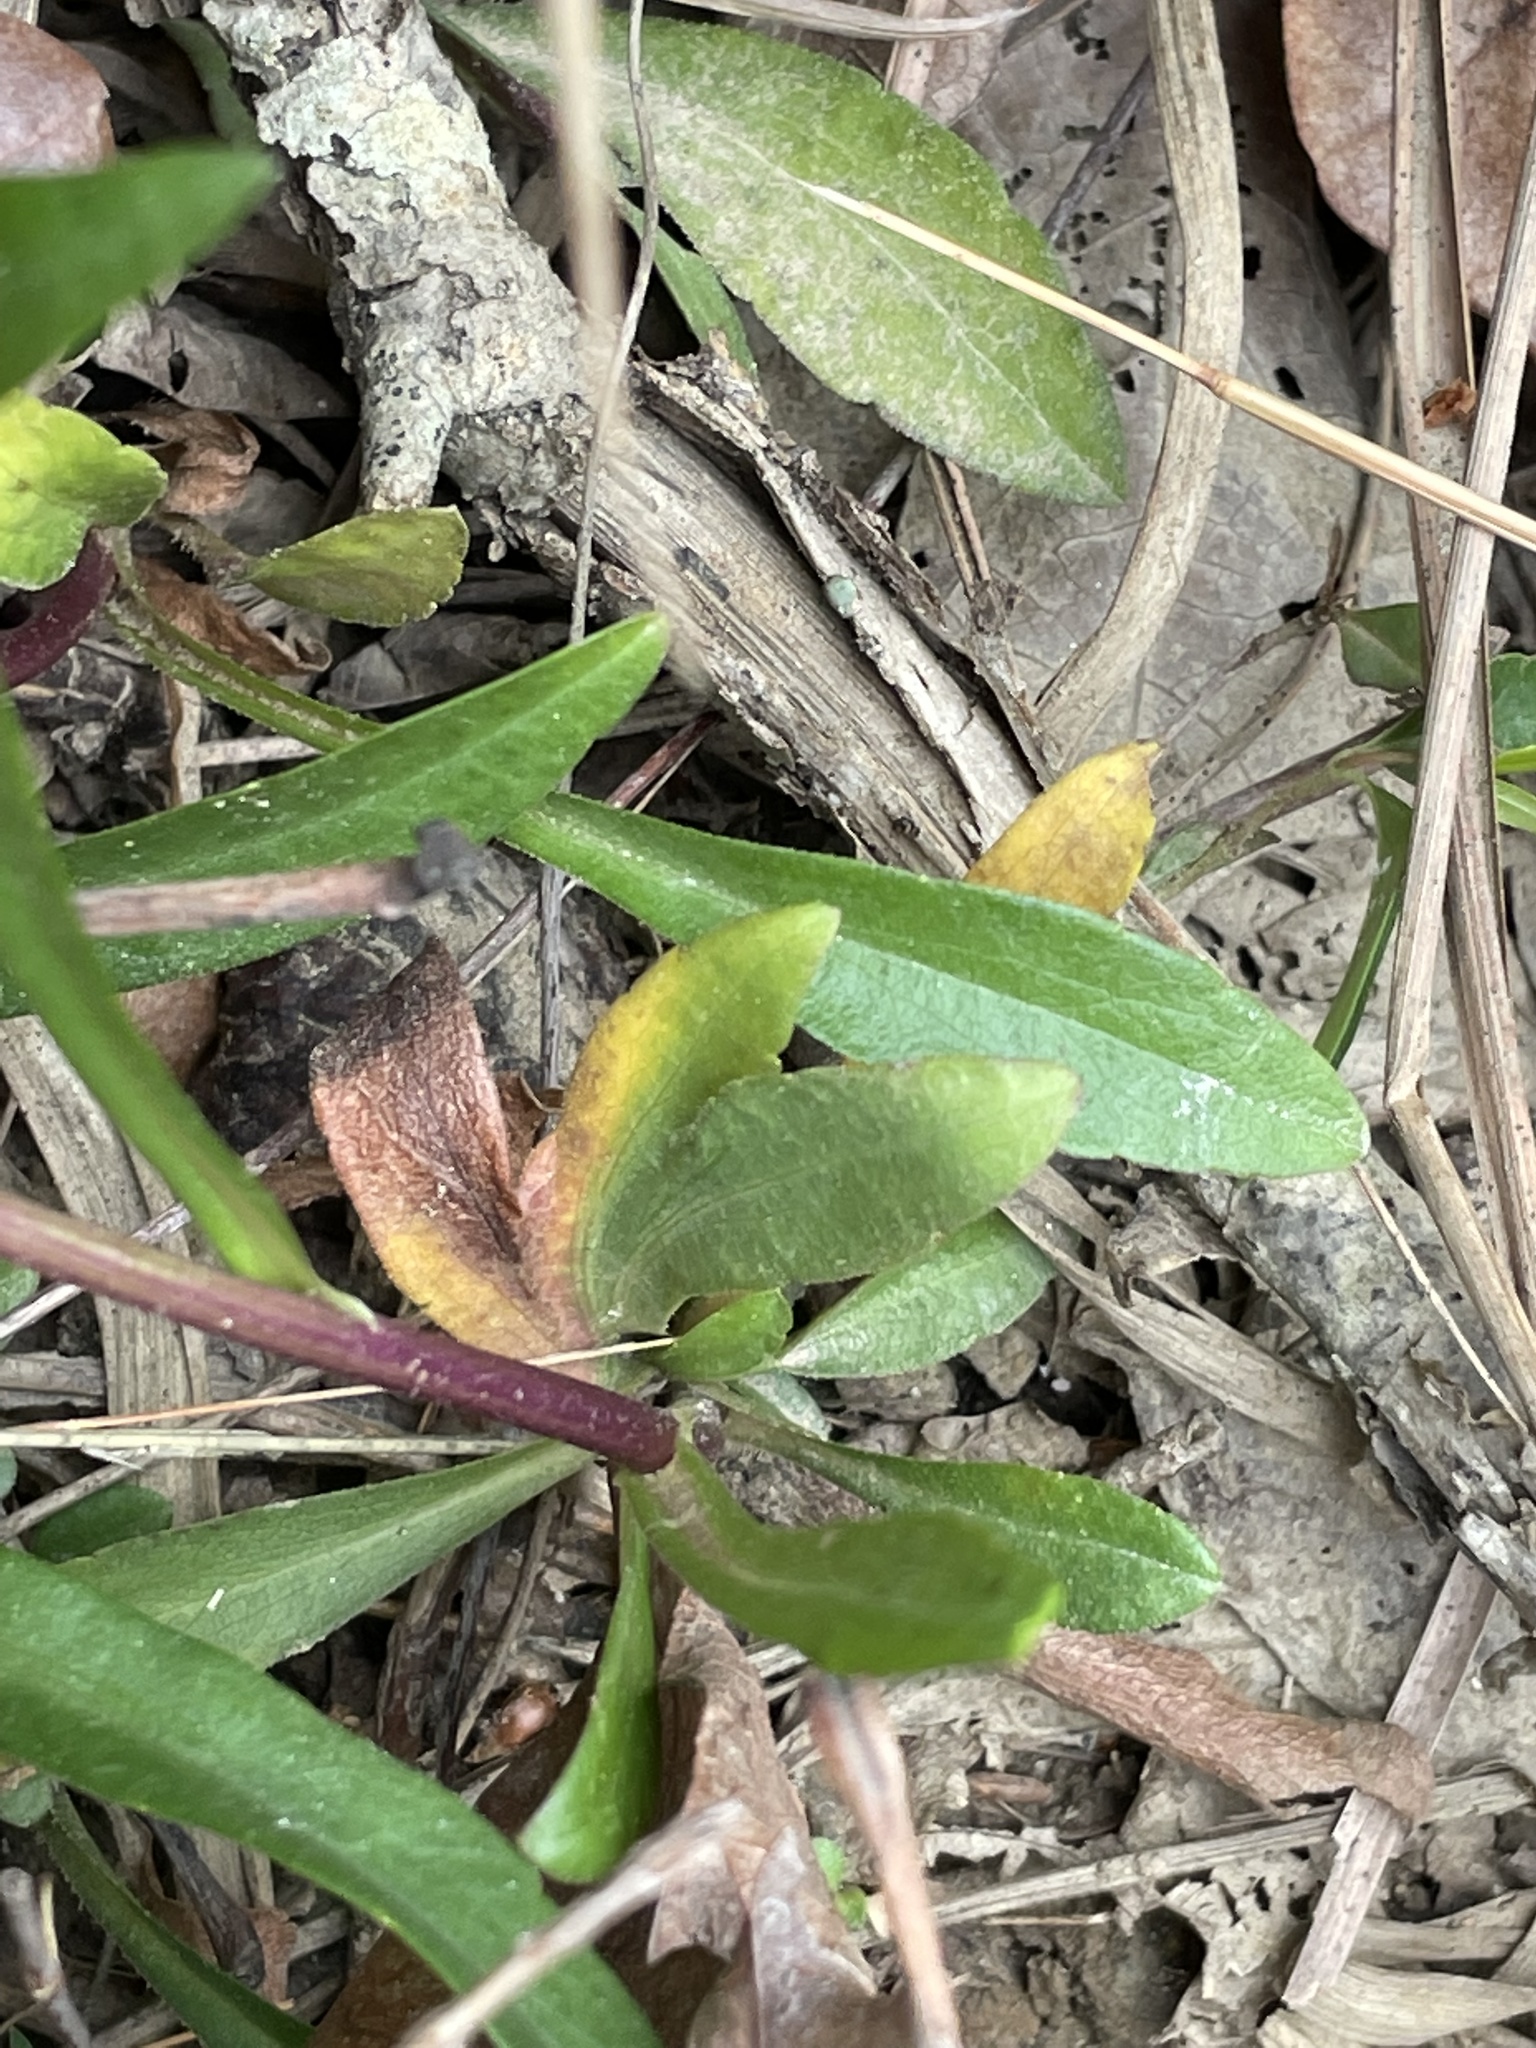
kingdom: Plantae
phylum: Tracheophyta
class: Magnoliopsida
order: Asterales
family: Asteraceae
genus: Helianthus
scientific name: Helianthus angustifolius
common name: Swamp sunflower
